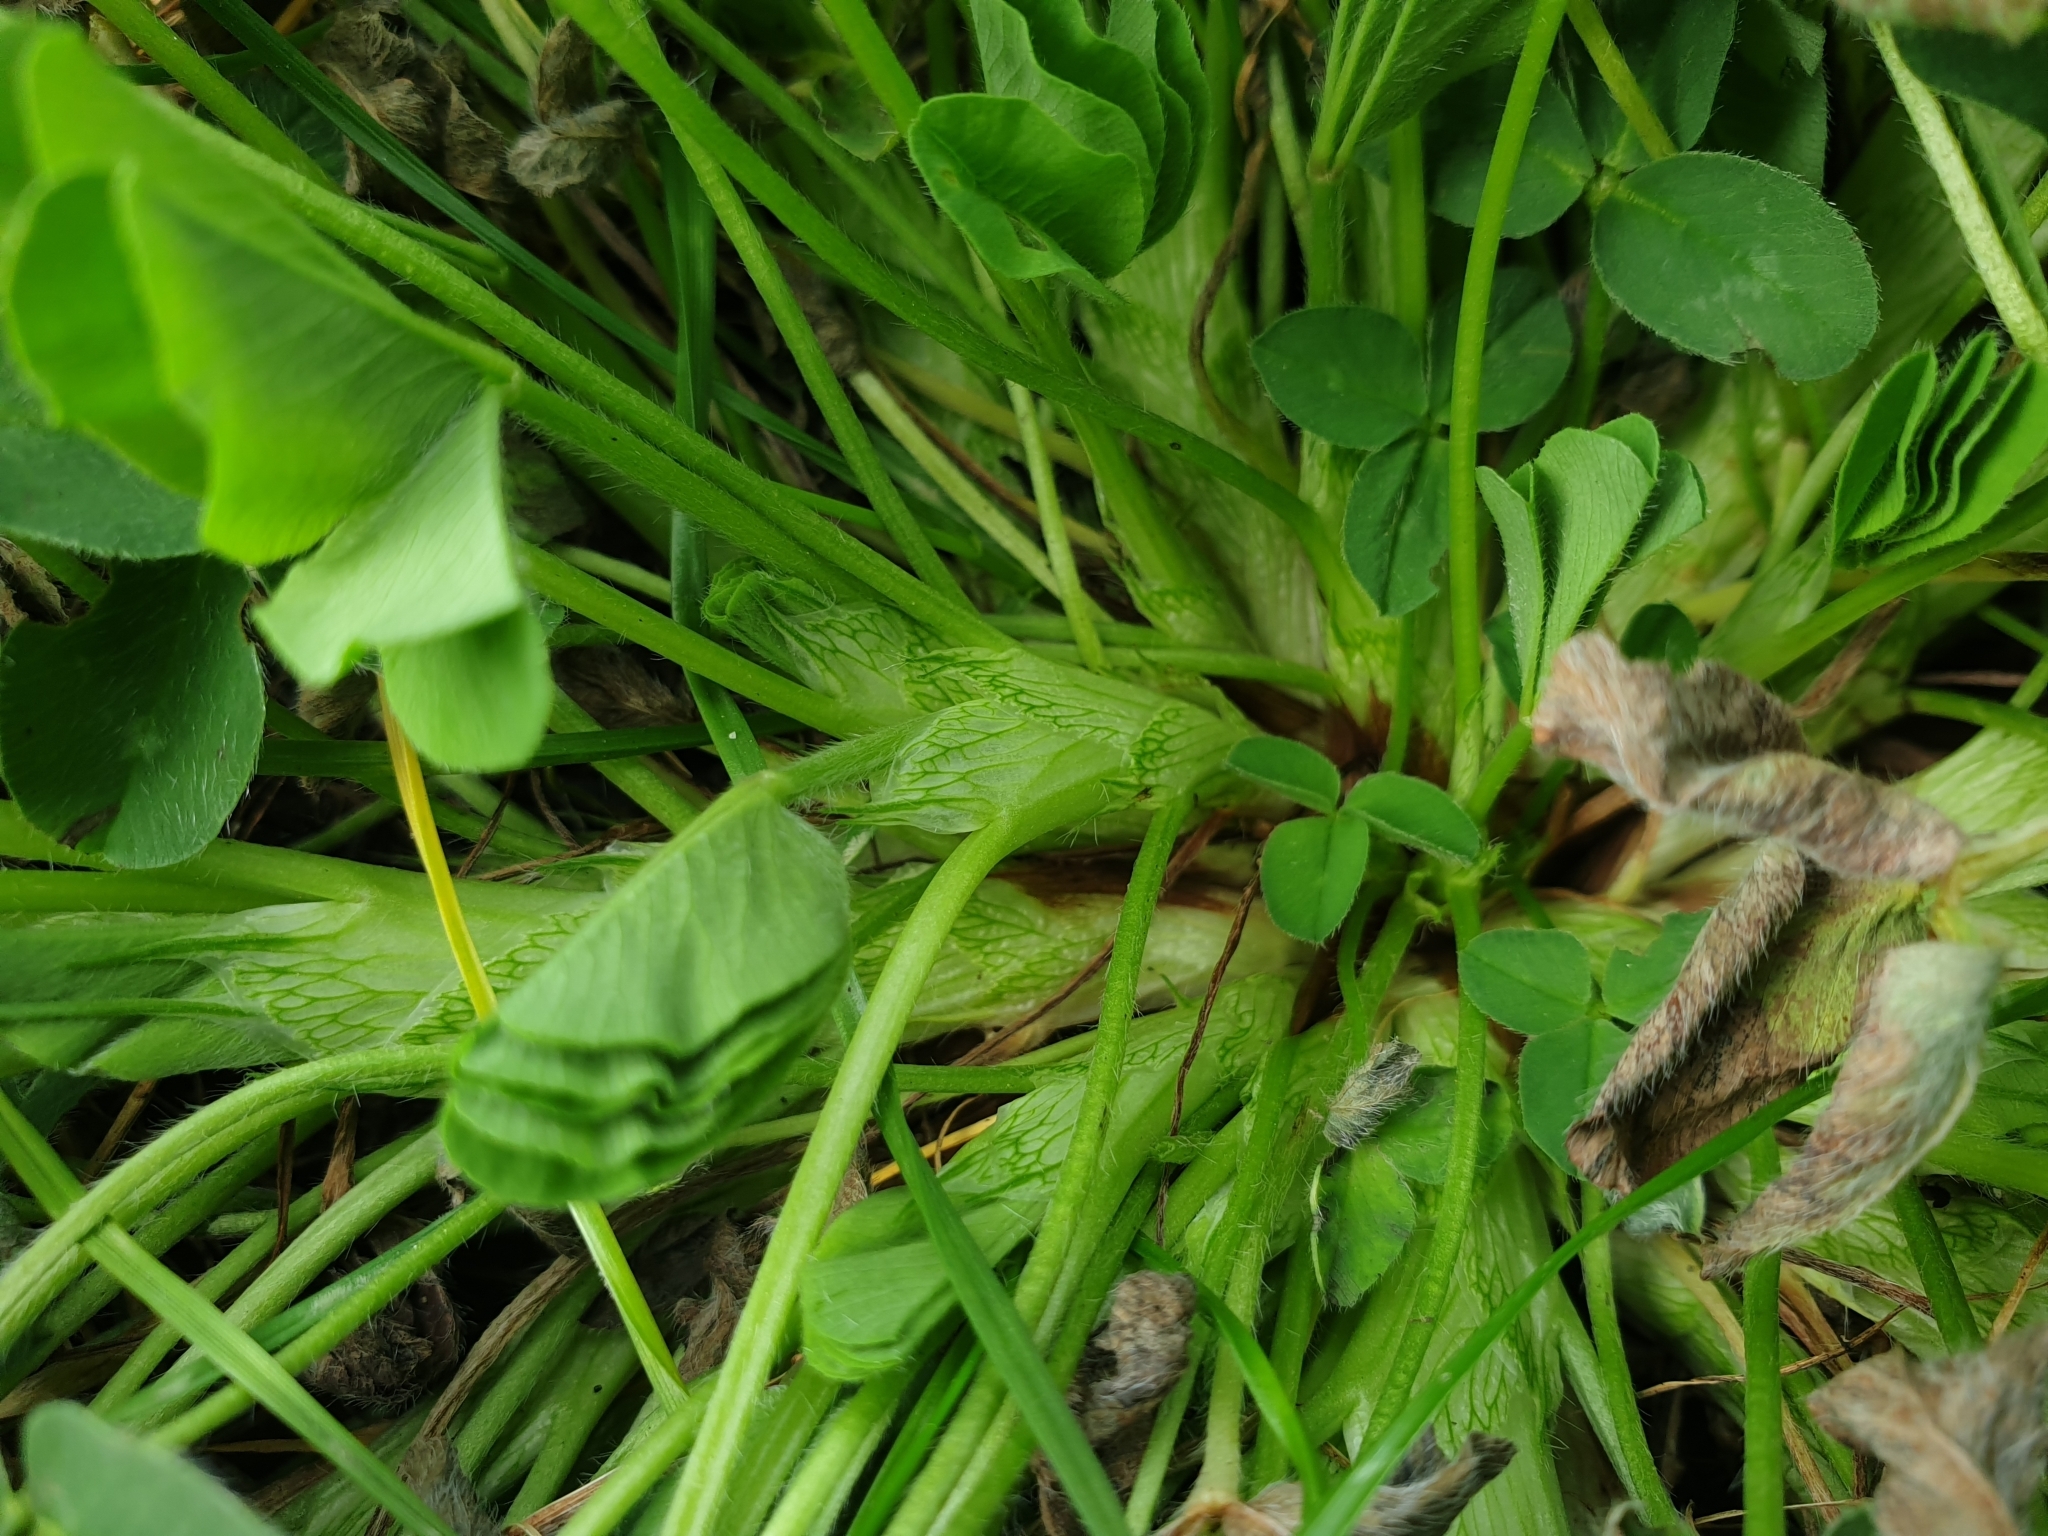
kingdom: Plantae
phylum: Tracheophyta
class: Magnoliopsida
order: Fabales
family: Fabaceae
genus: Trifolium
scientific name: Trifolium pratense
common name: Red clover
